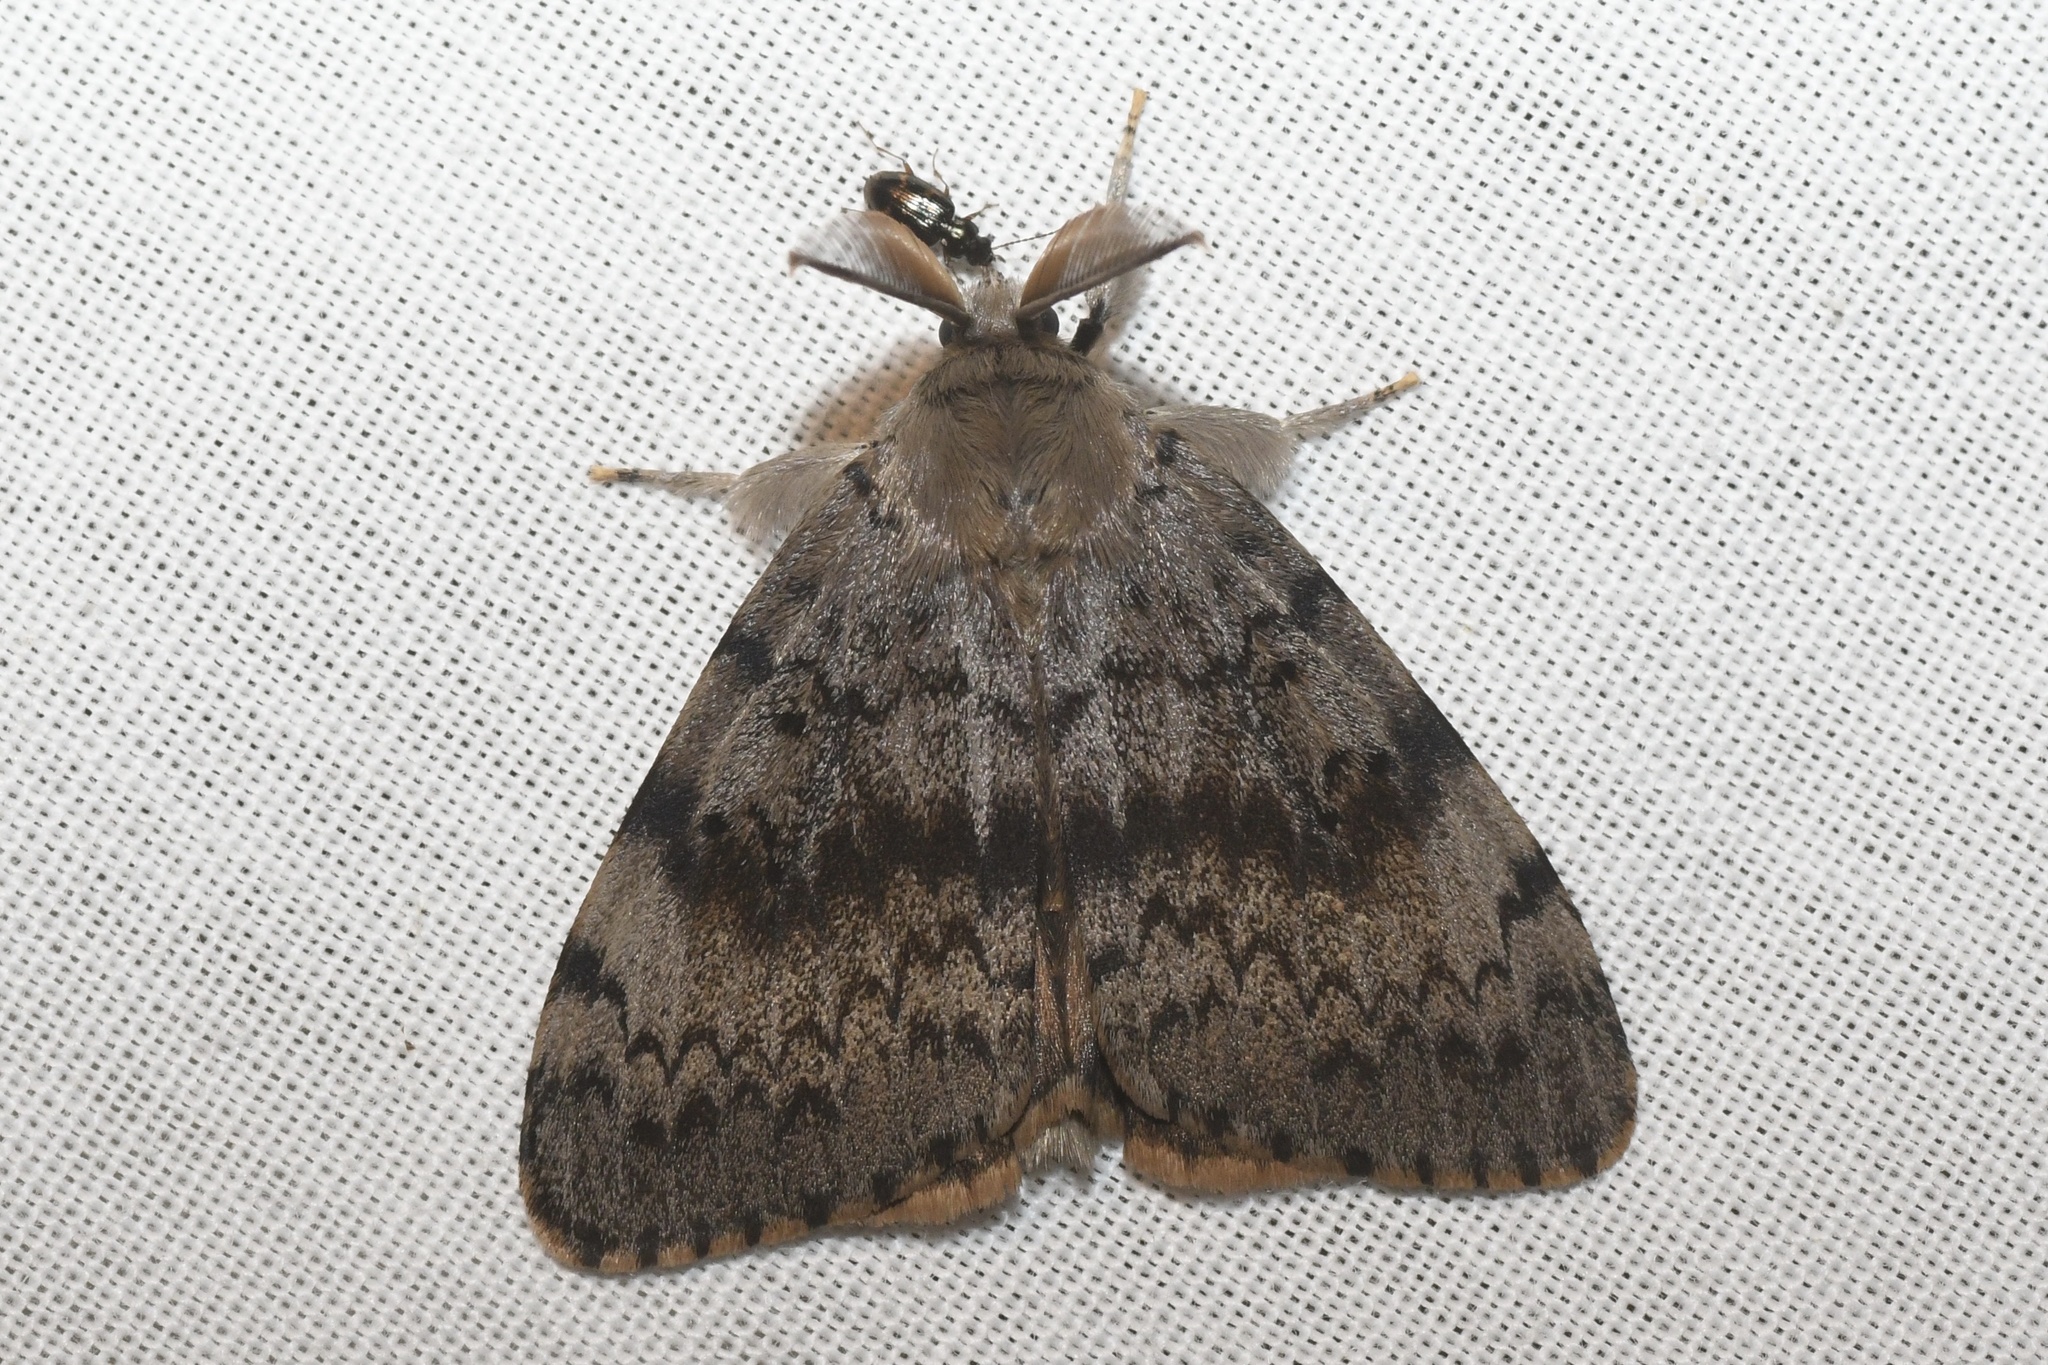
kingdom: Animalia
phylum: Arthropoda
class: Insecta
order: Lepidoptera
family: Erebidae
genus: Lymantria
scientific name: Lymantria dispar
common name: Gypsy moth
